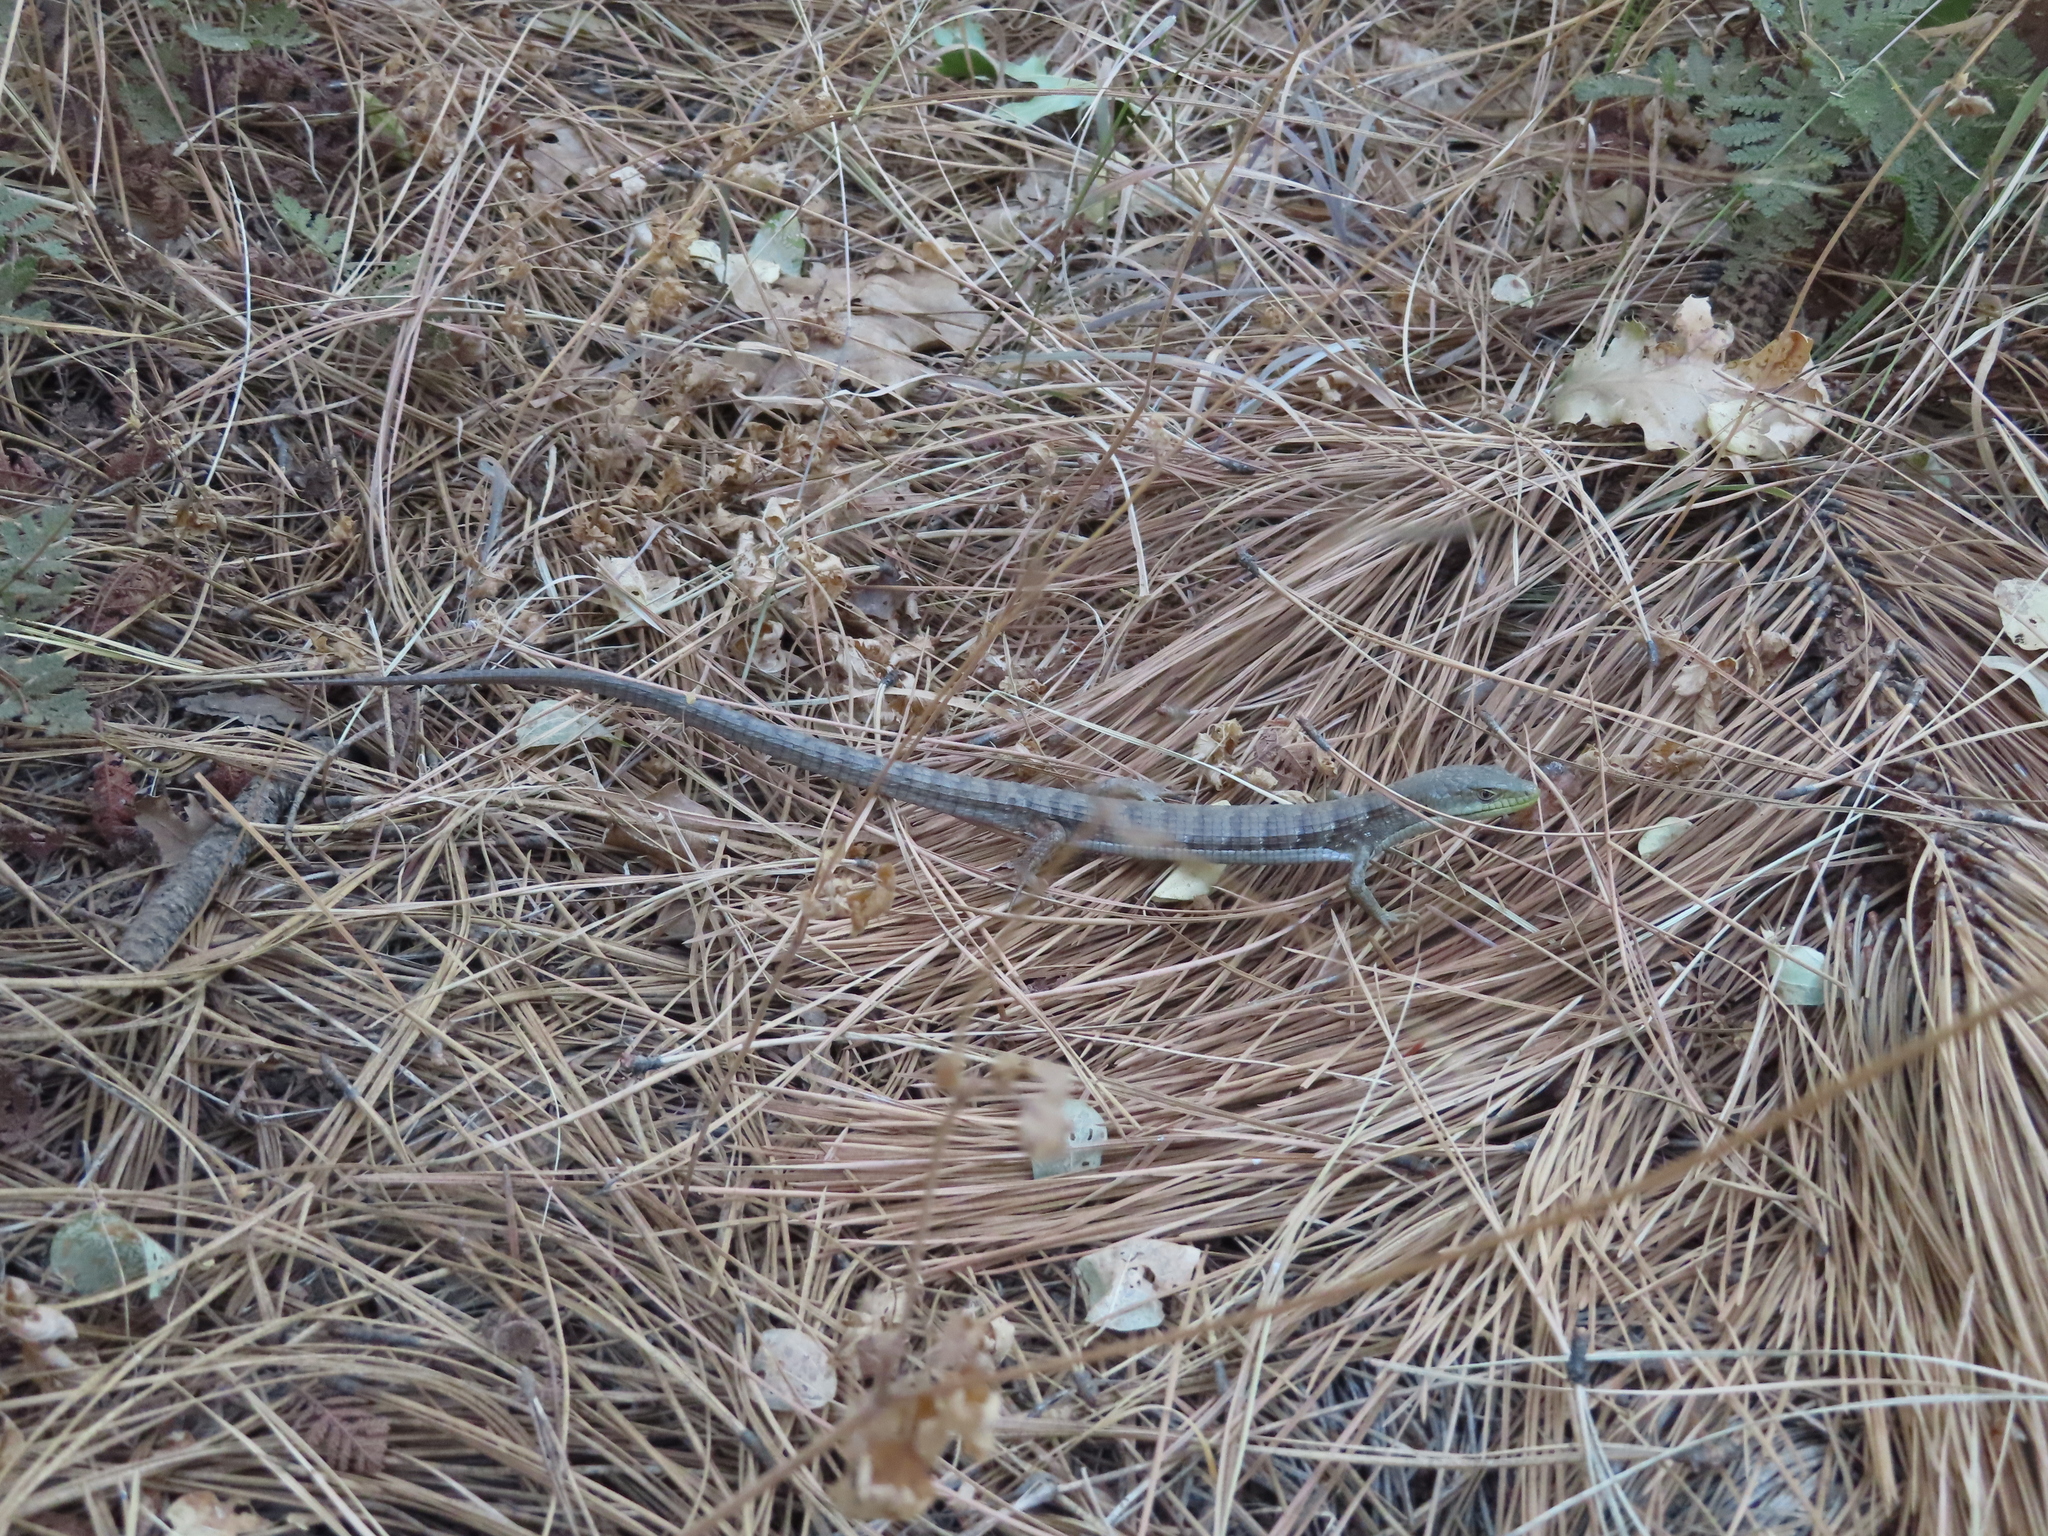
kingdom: Animalia
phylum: Chordata
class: Squamata
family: Anguidae
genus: Elgaria
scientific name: Elgaria multicarinata
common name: Southern alligator lizard
